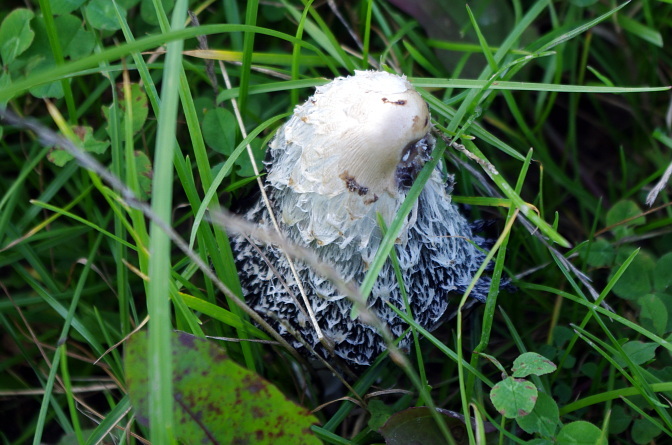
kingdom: Fungi
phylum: Basidiomycota
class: Agaricomycetes
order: Agaricales
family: Agaricaceae
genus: Coprinus
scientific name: Coprinus comatus
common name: Lawyer's wig
